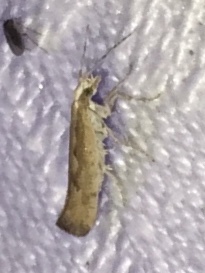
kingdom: Animalia
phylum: Arthropoda
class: Insecta
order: Lepidoptera
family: Plutellidae
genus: Plutella
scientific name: Plutella xylostella
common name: Diamond-back moth
